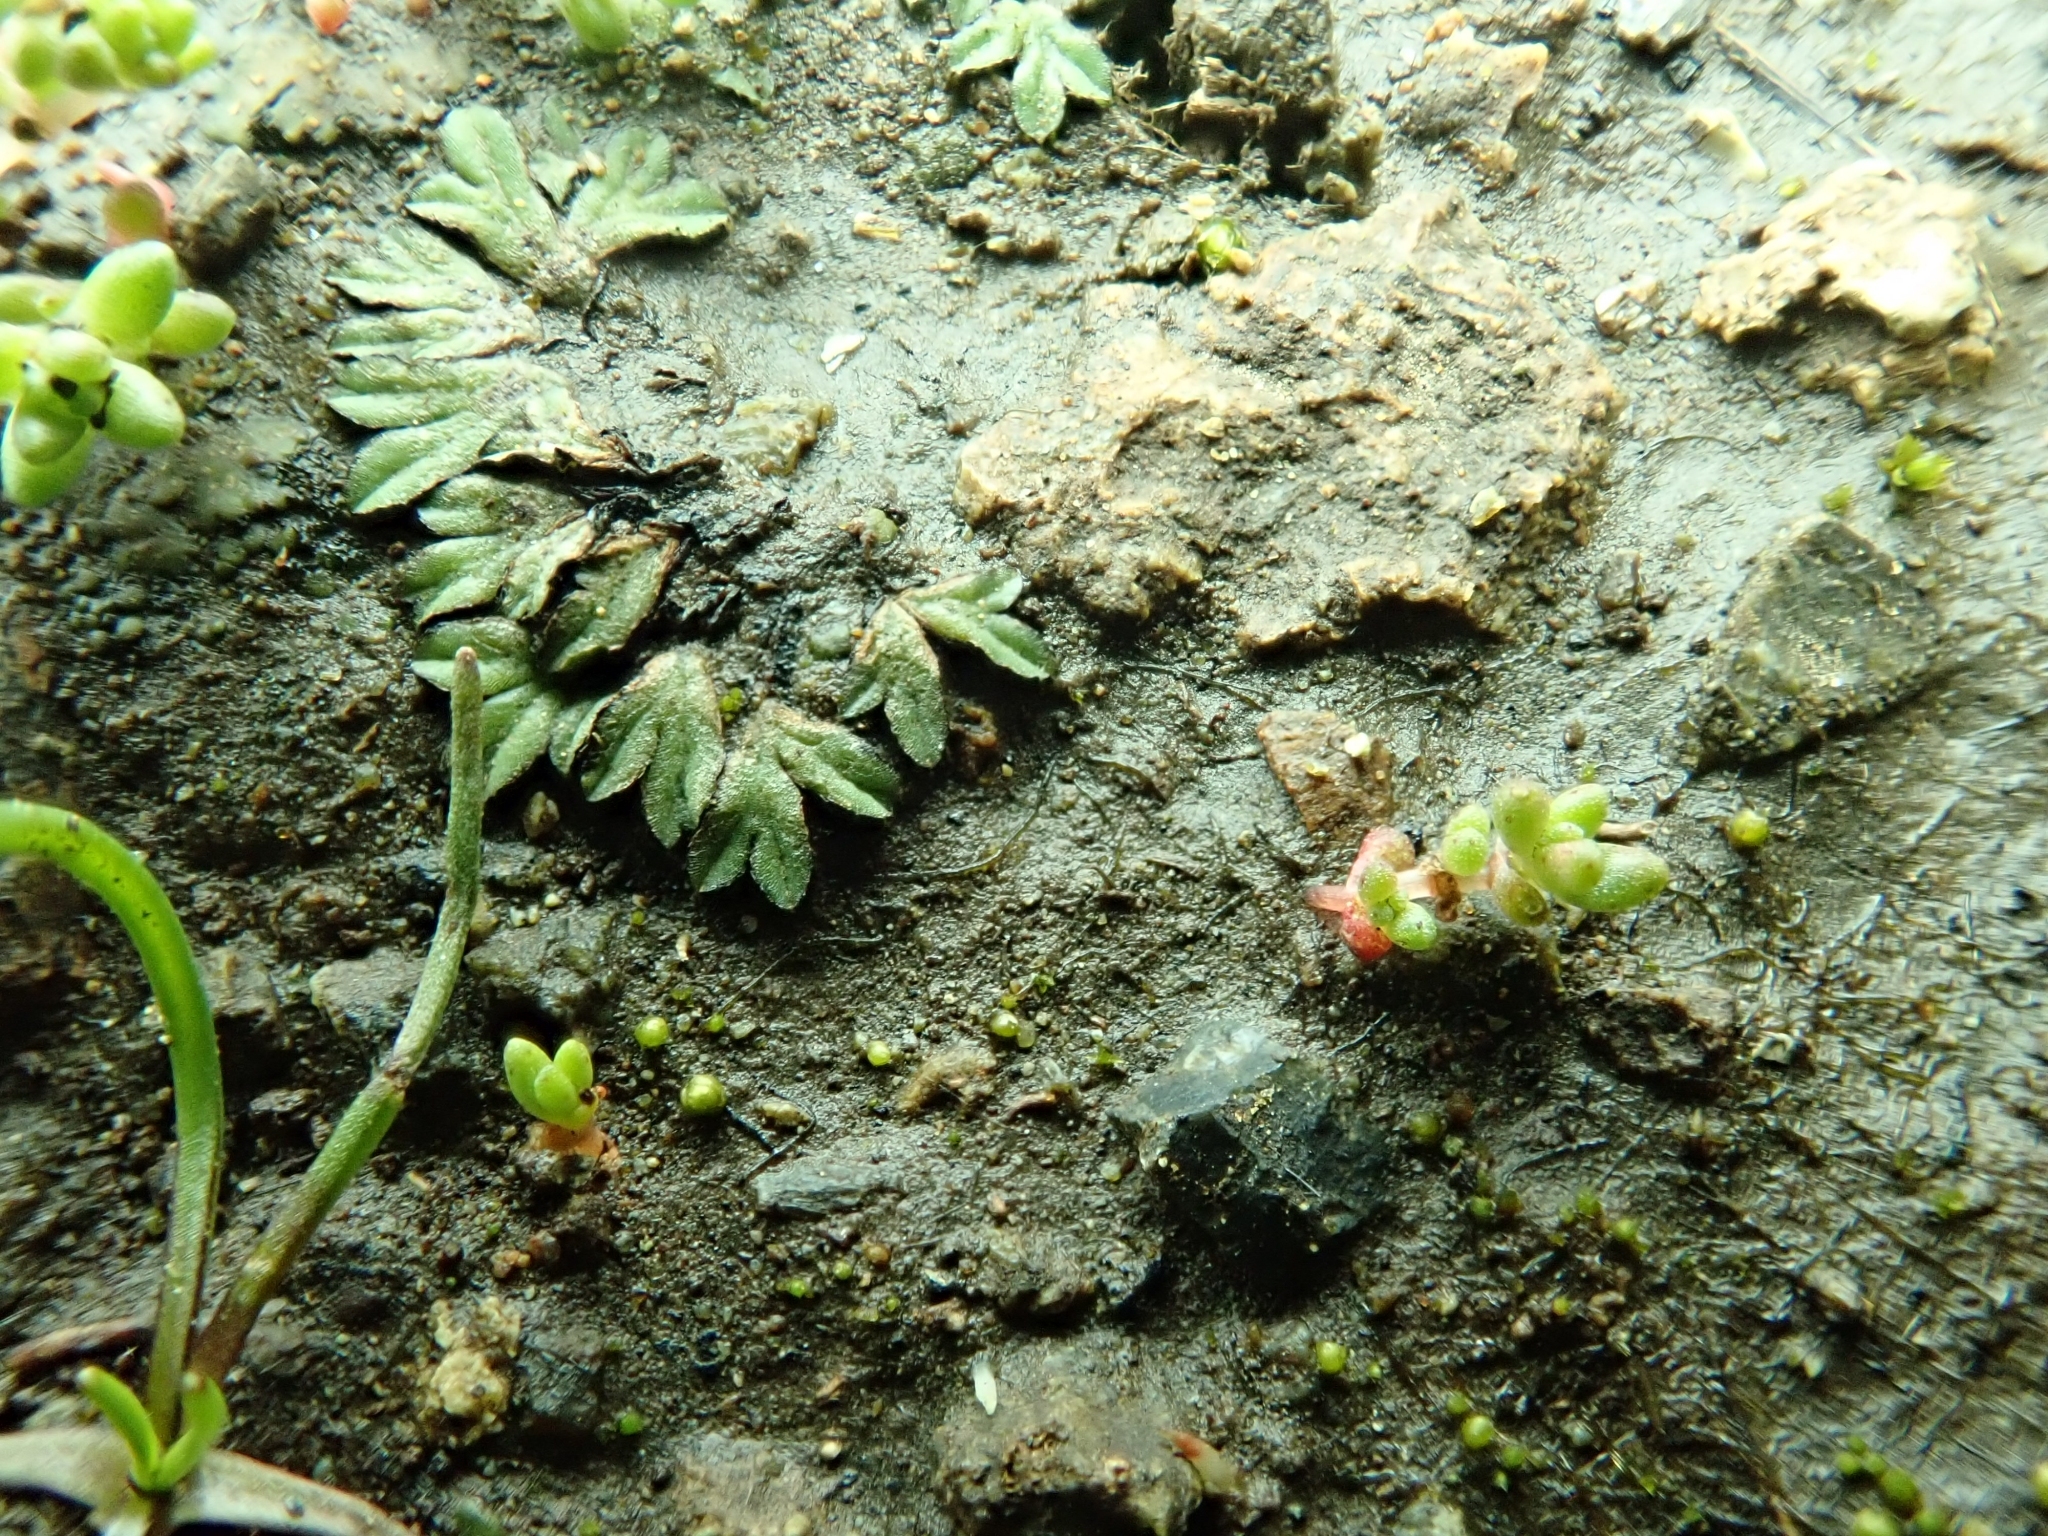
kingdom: Plantae
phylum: Marchantiophyta
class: Marchantiopsida
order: Marchantiales
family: Ricciaceae
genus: Riccia
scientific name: Riccia nigrella
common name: Black crystalwort
